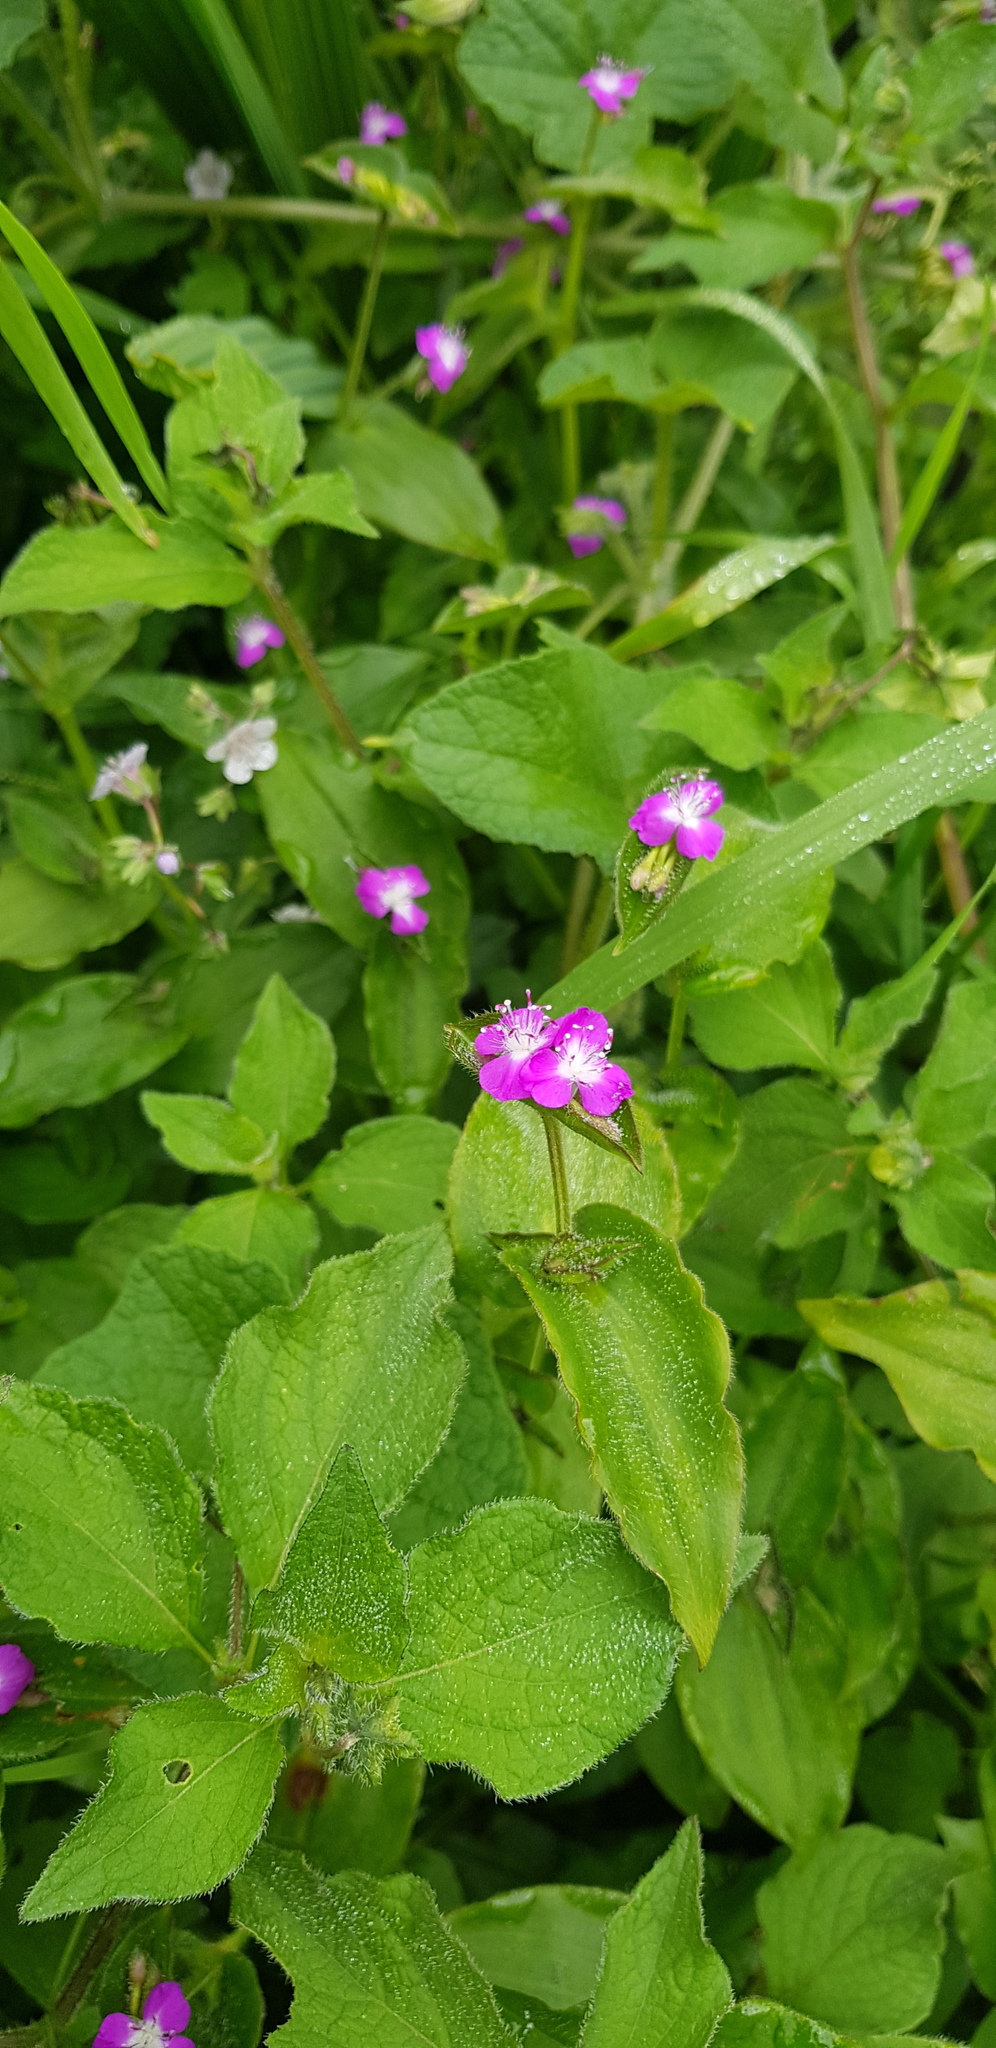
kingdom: Plantae
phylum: Tracheophyta
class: Liliopsida
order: Commelinales
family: Commelinaceae
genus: Tradescantia
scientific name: Tradescantia commelinoides
